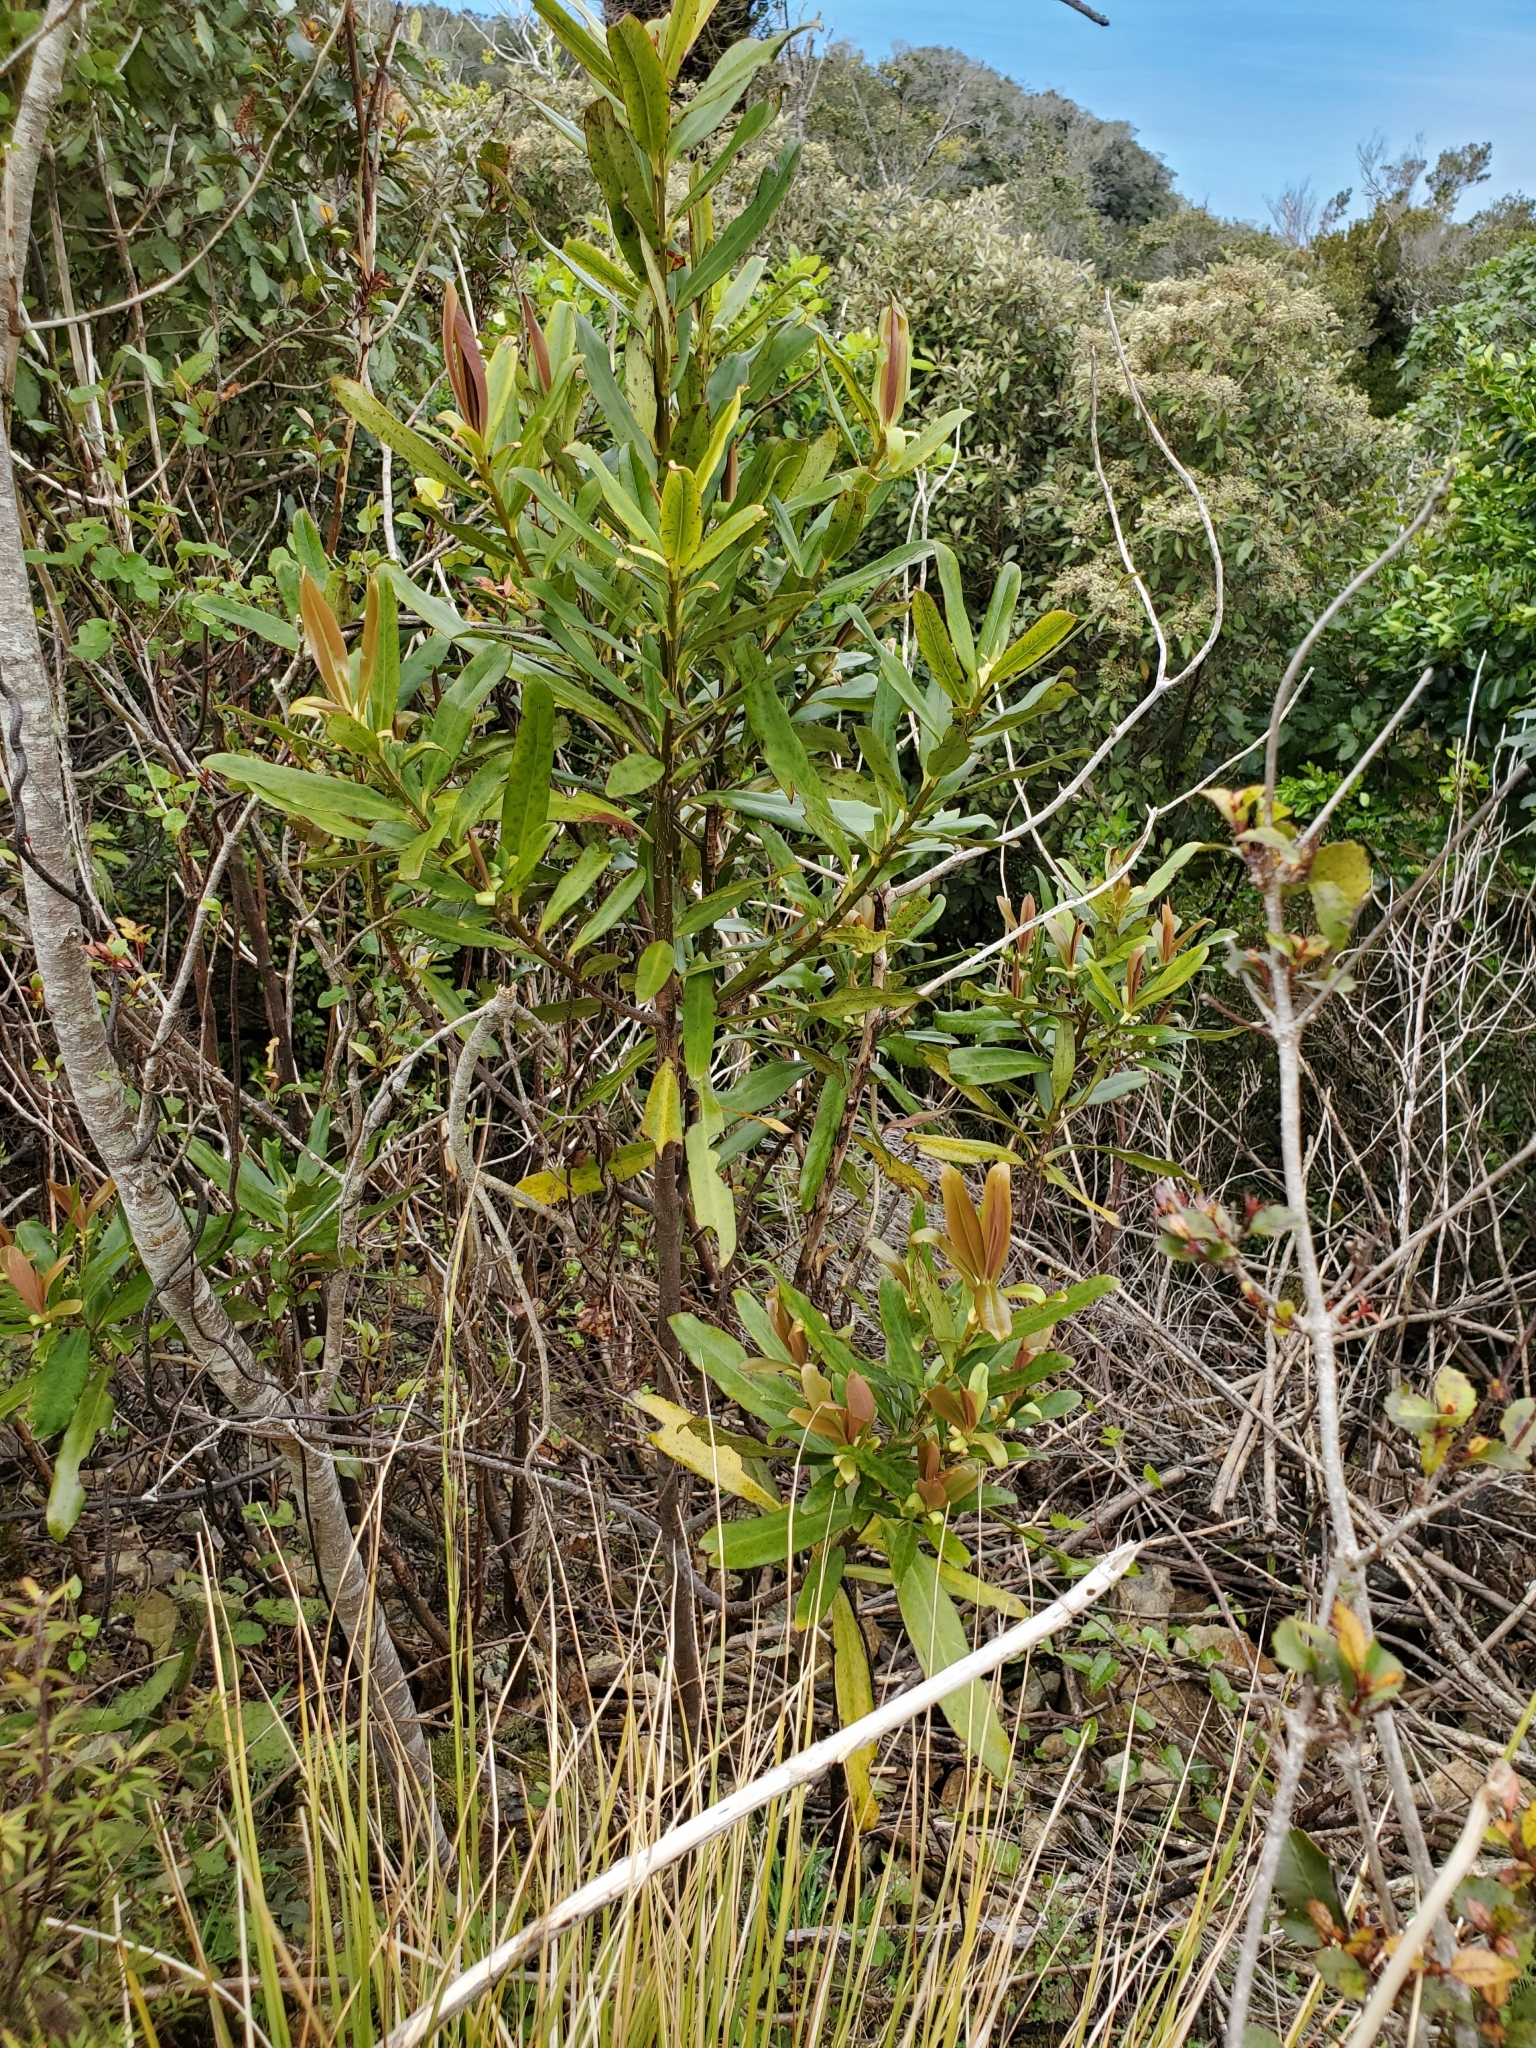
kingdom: Plantae
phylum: Tracheophyta
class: Magnoliopsida
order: Ericales
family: Primulaceae
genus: Myrsine
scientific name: Myrsine salicina
